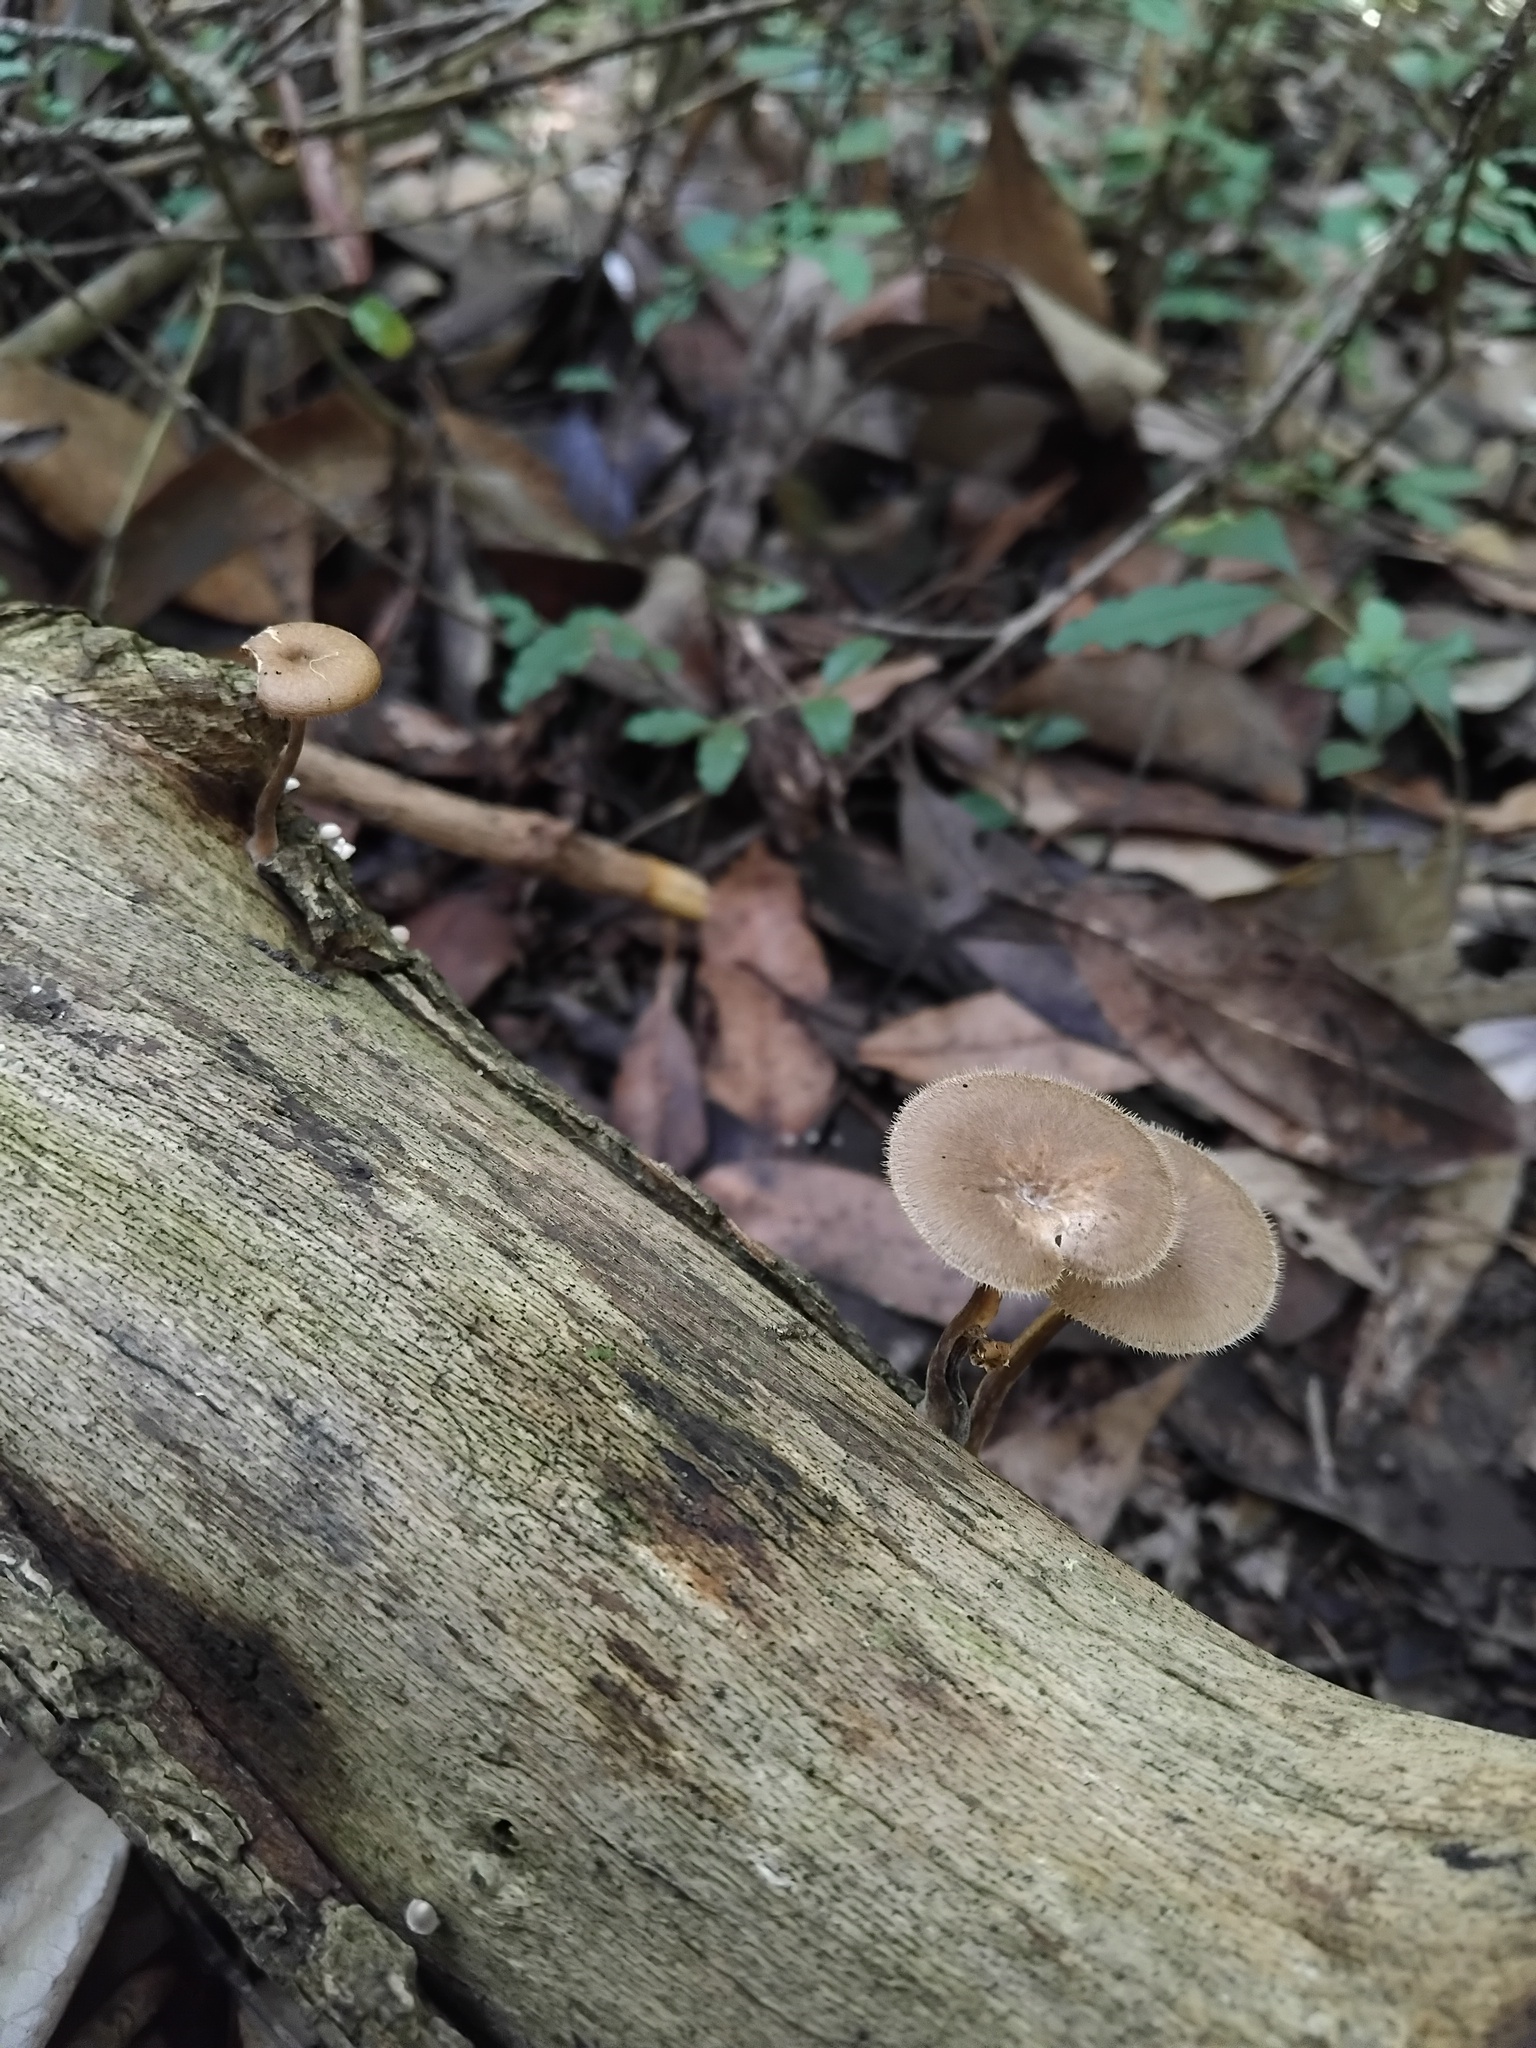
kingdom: Fungi
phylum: Basidiomycota
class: Agaricomycetes
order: Polyporales
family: Polyporaceae
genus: Lentinus
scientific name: Lentinus arcularius
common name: Spring polypore
